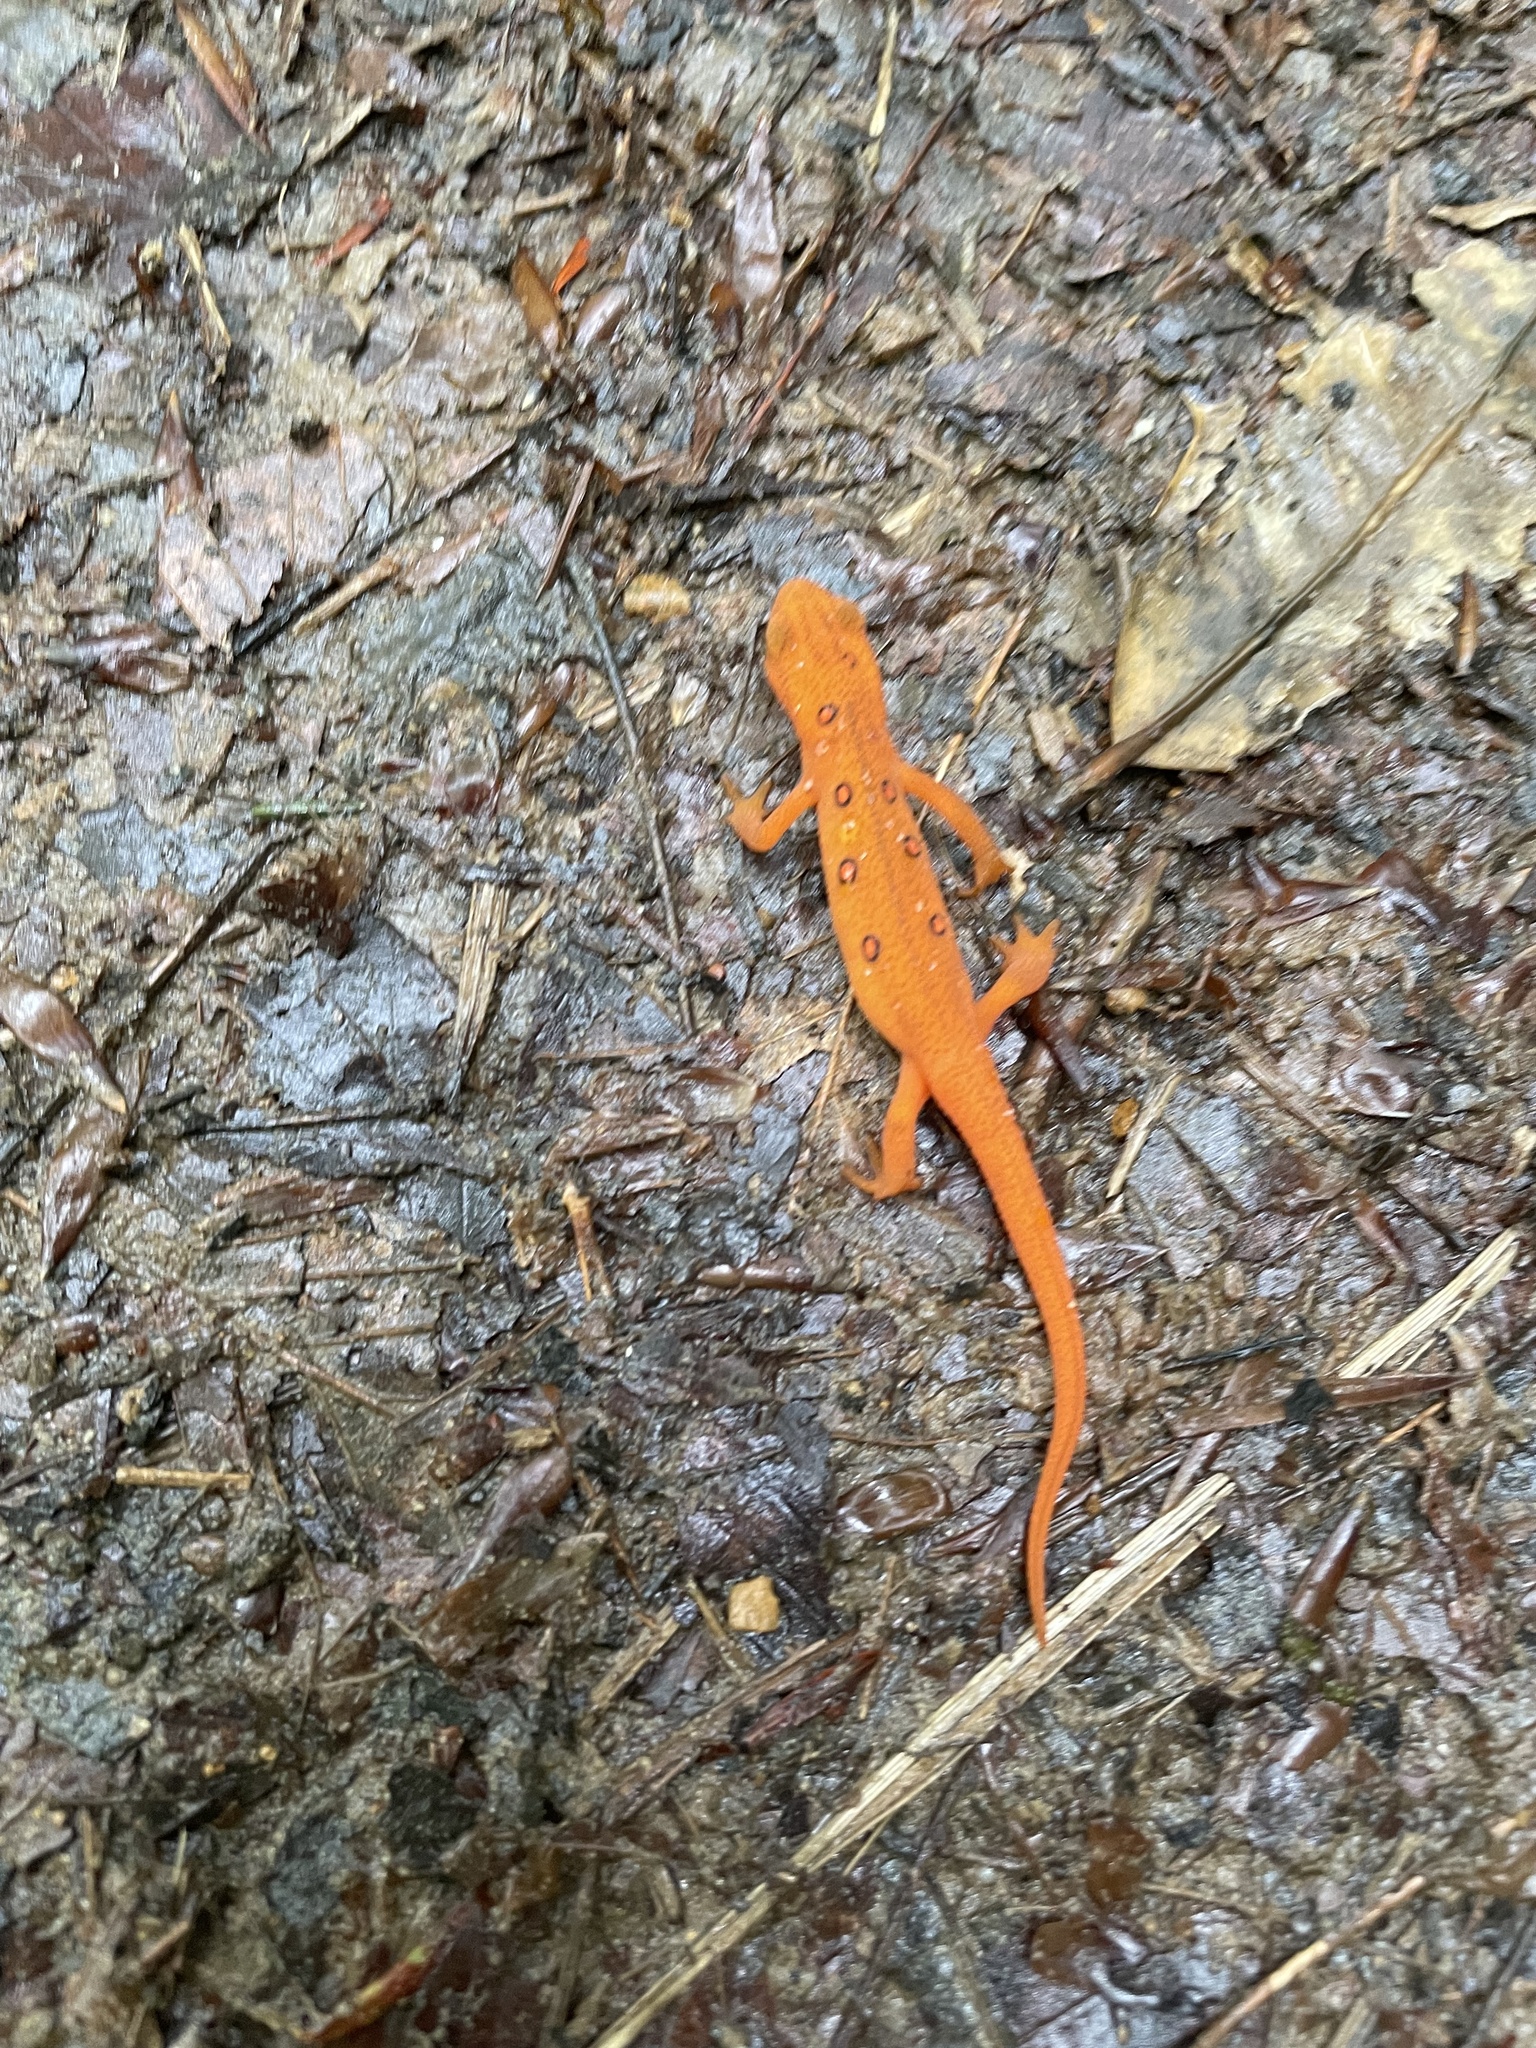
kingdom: Animalia
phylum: Chordata
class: Amphibia
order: Caudata
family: Salamandridae
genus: Notophthalmus
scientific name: Notophthalmus viridescens
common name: Eastern newt
